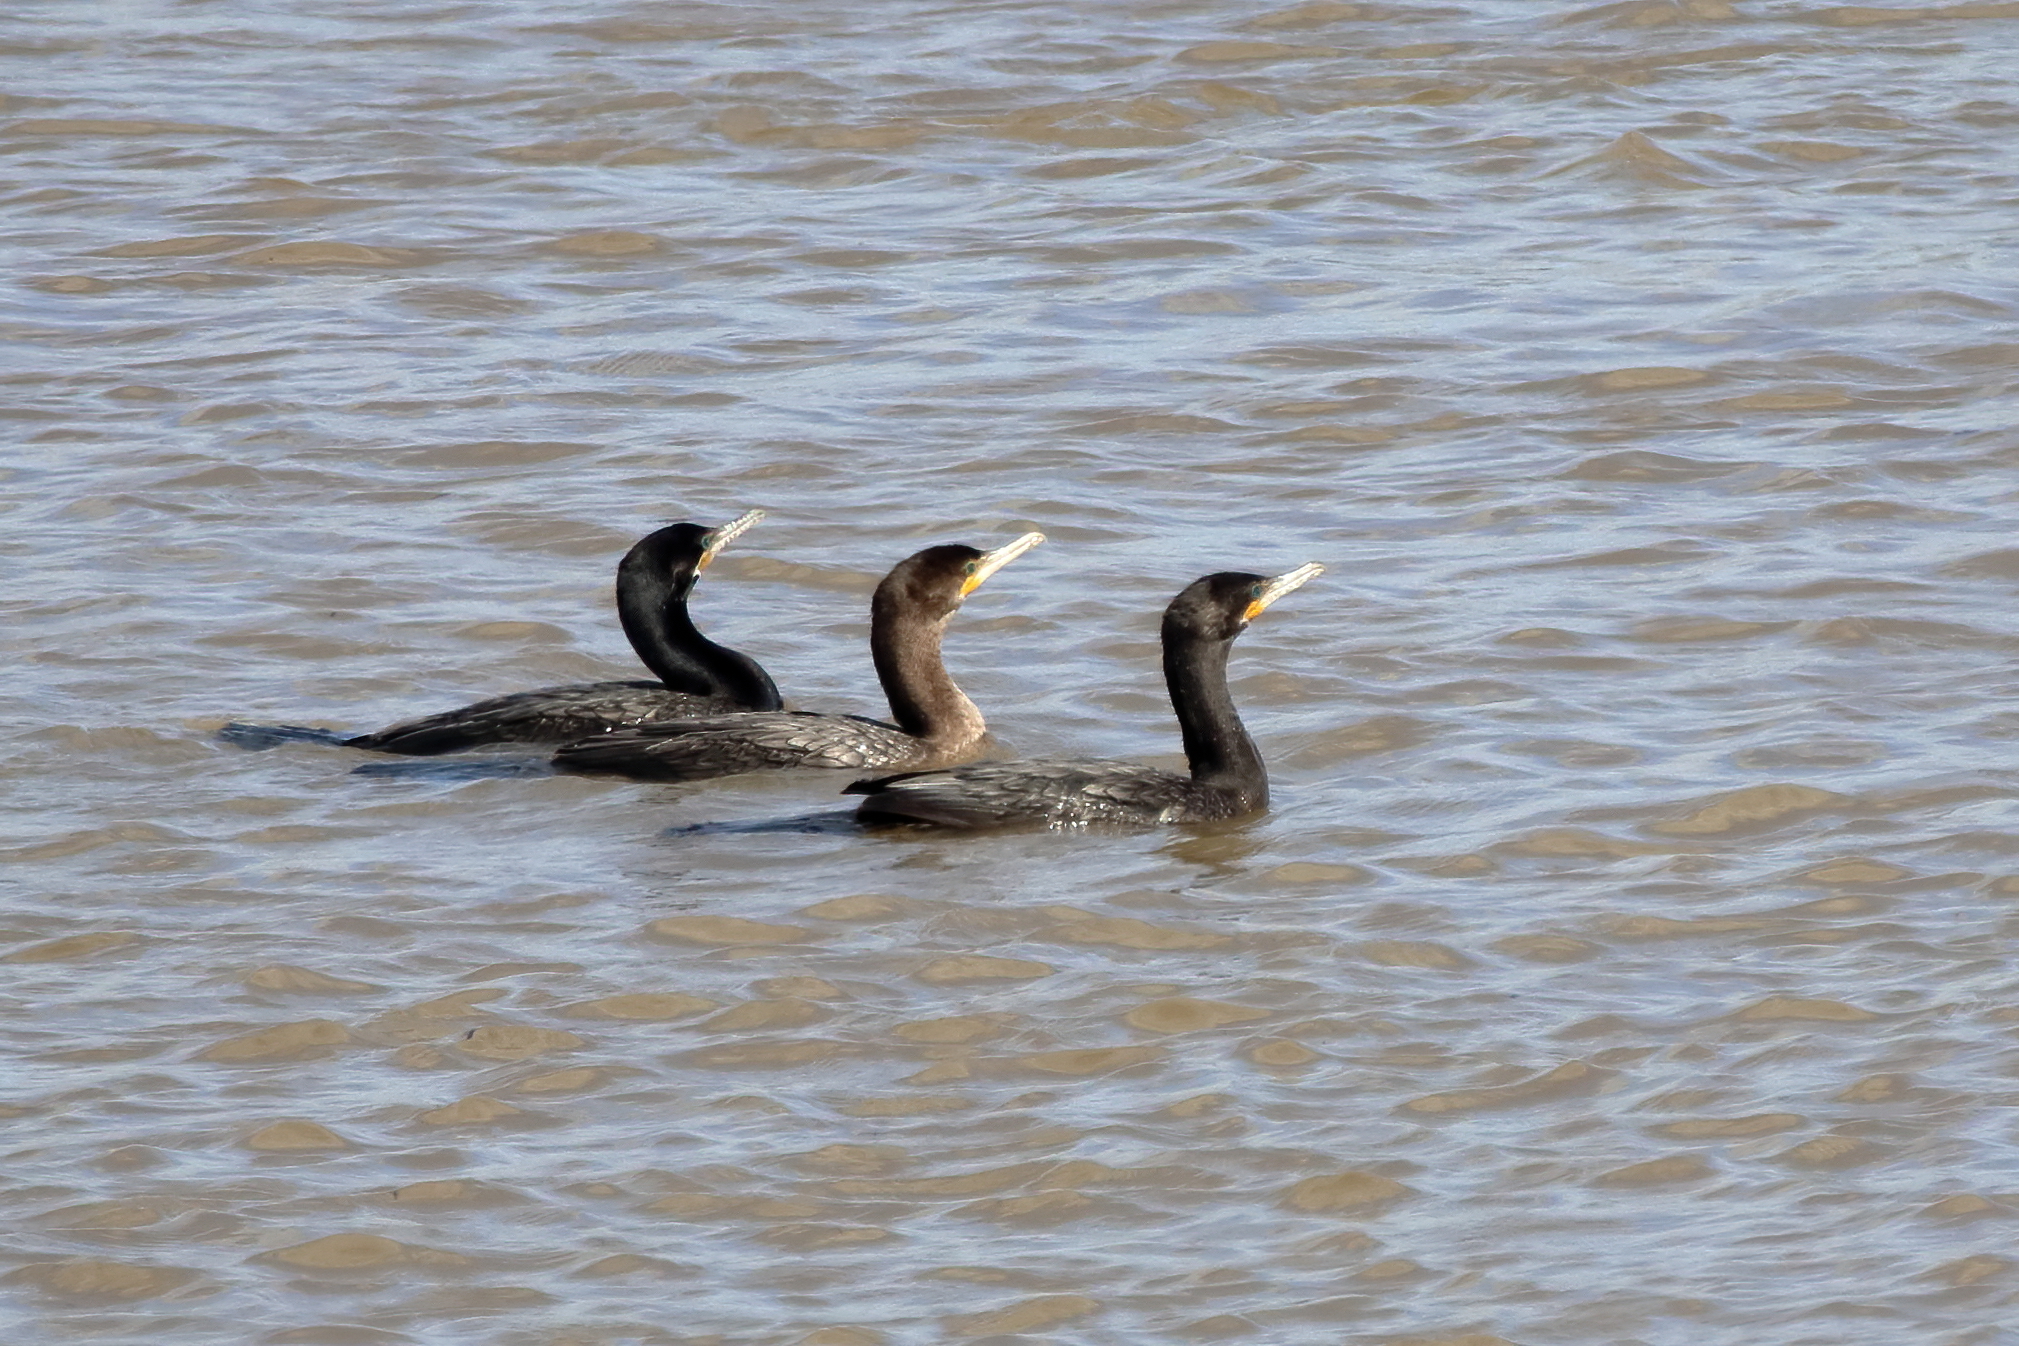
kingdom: Animalia
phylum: Chordata
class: Aves
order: Suliformes
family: Phalacrocoracidae
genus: Phalacrocorax
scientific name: Phalacrocorax brasilianus
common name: Neotropic cormorant
